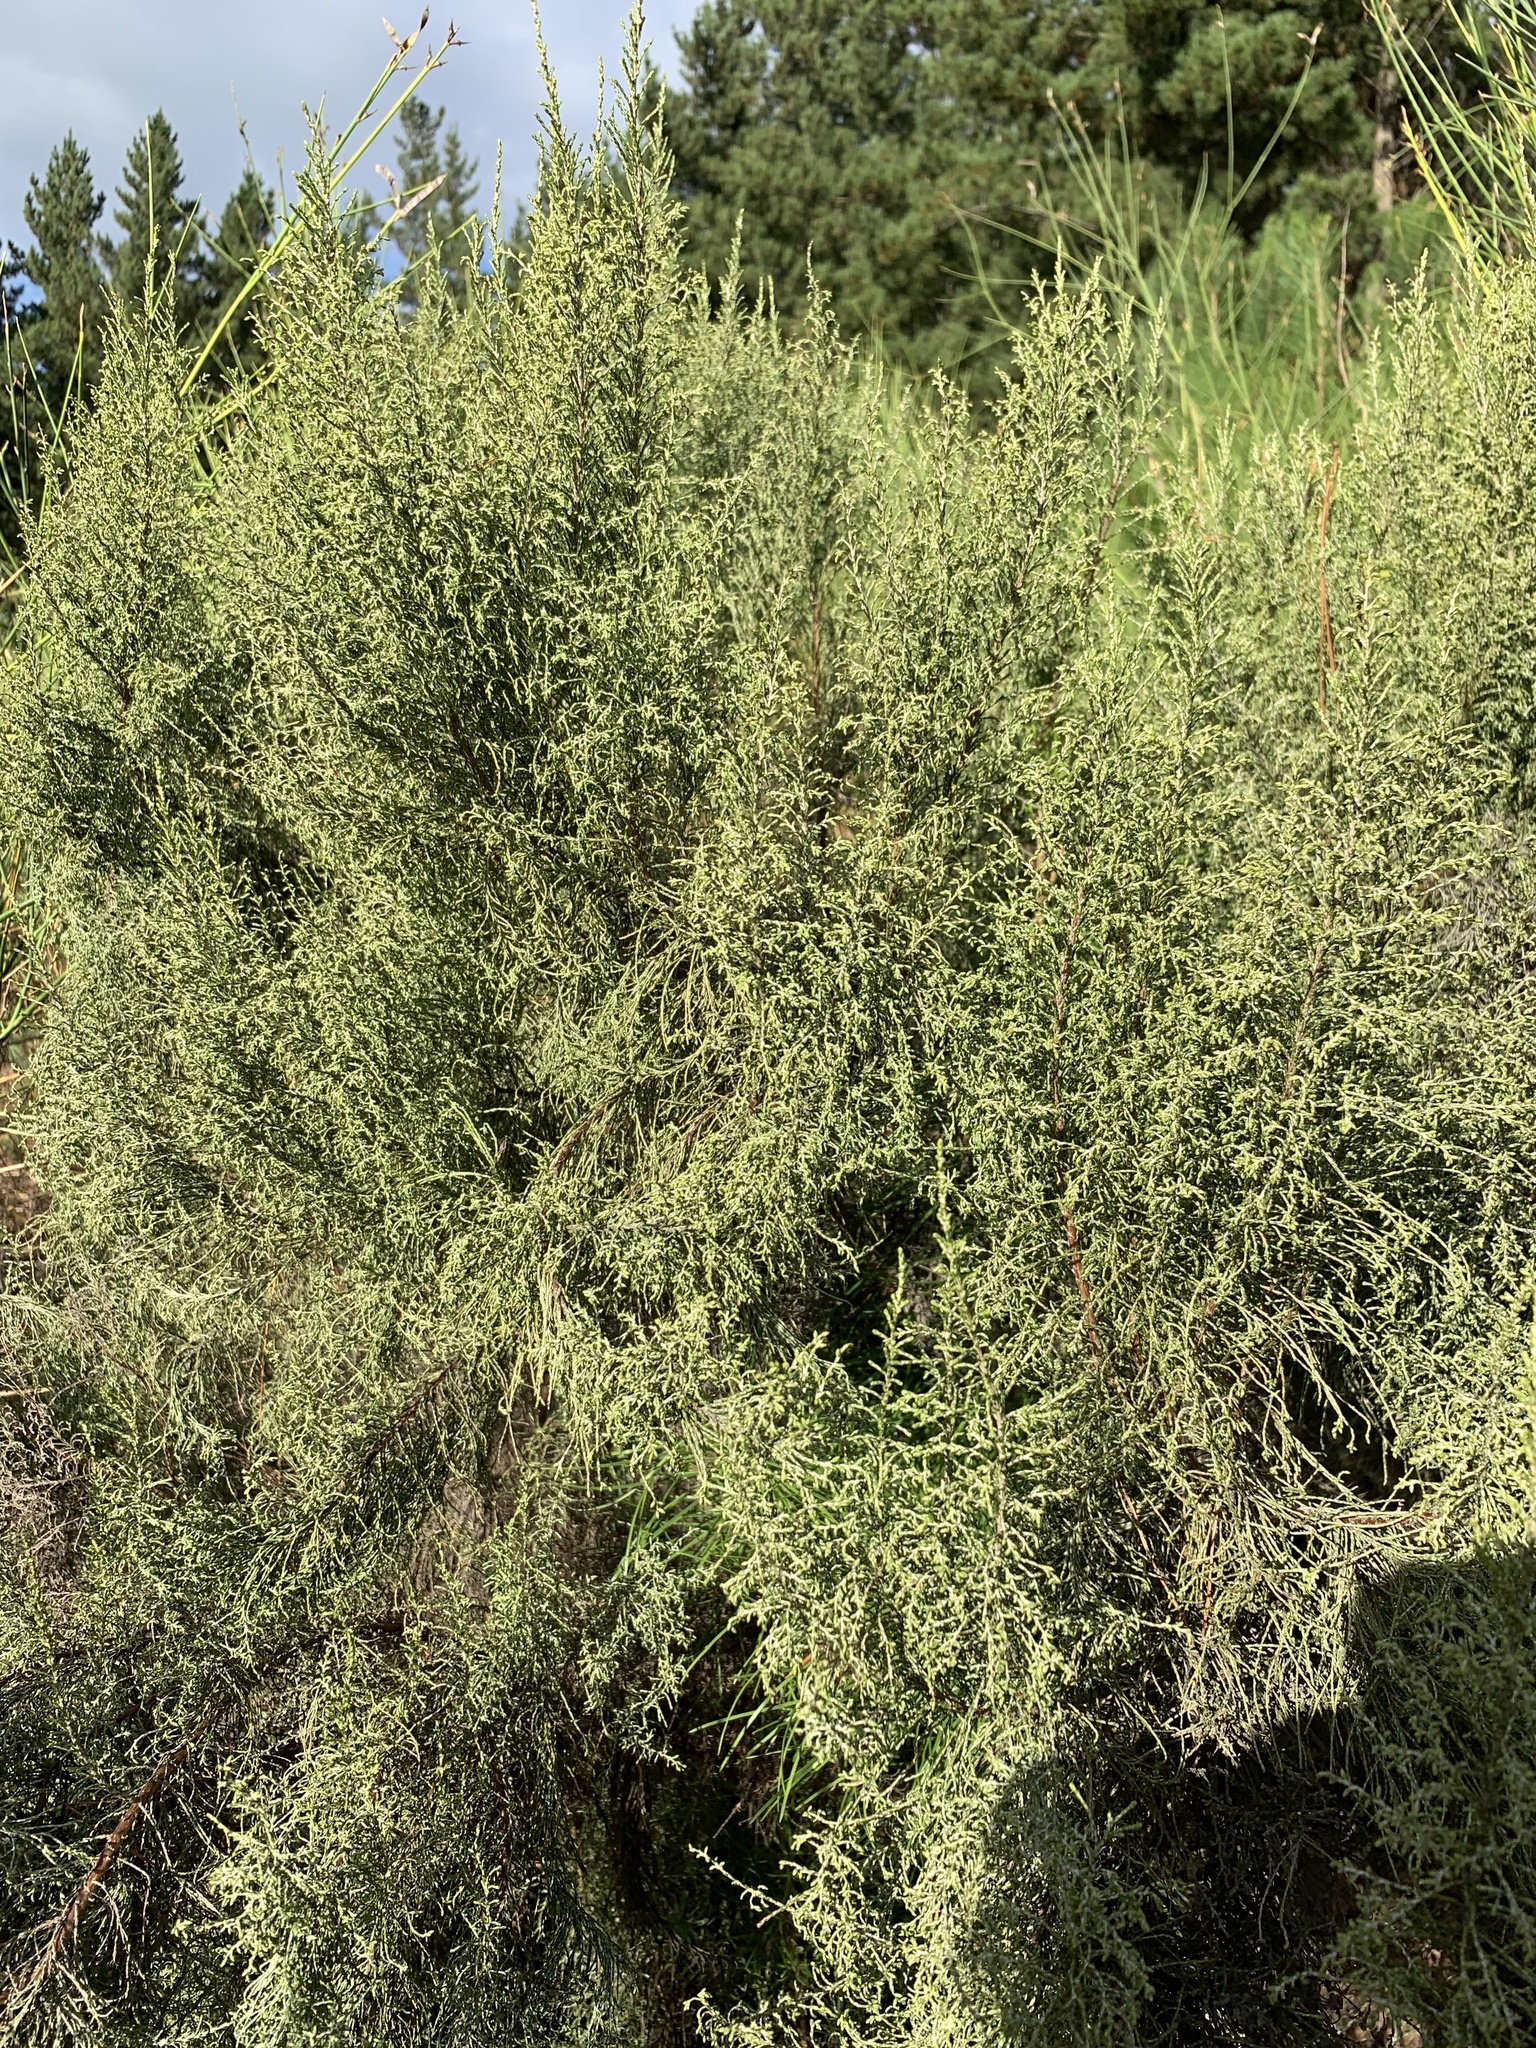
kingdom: Plantae
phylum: Tracheophyta
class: Magnoliopsida
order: Asterales
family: Asteraceae
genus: Dicerothamnus
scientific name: Dicerothamnus rhinocerotis
